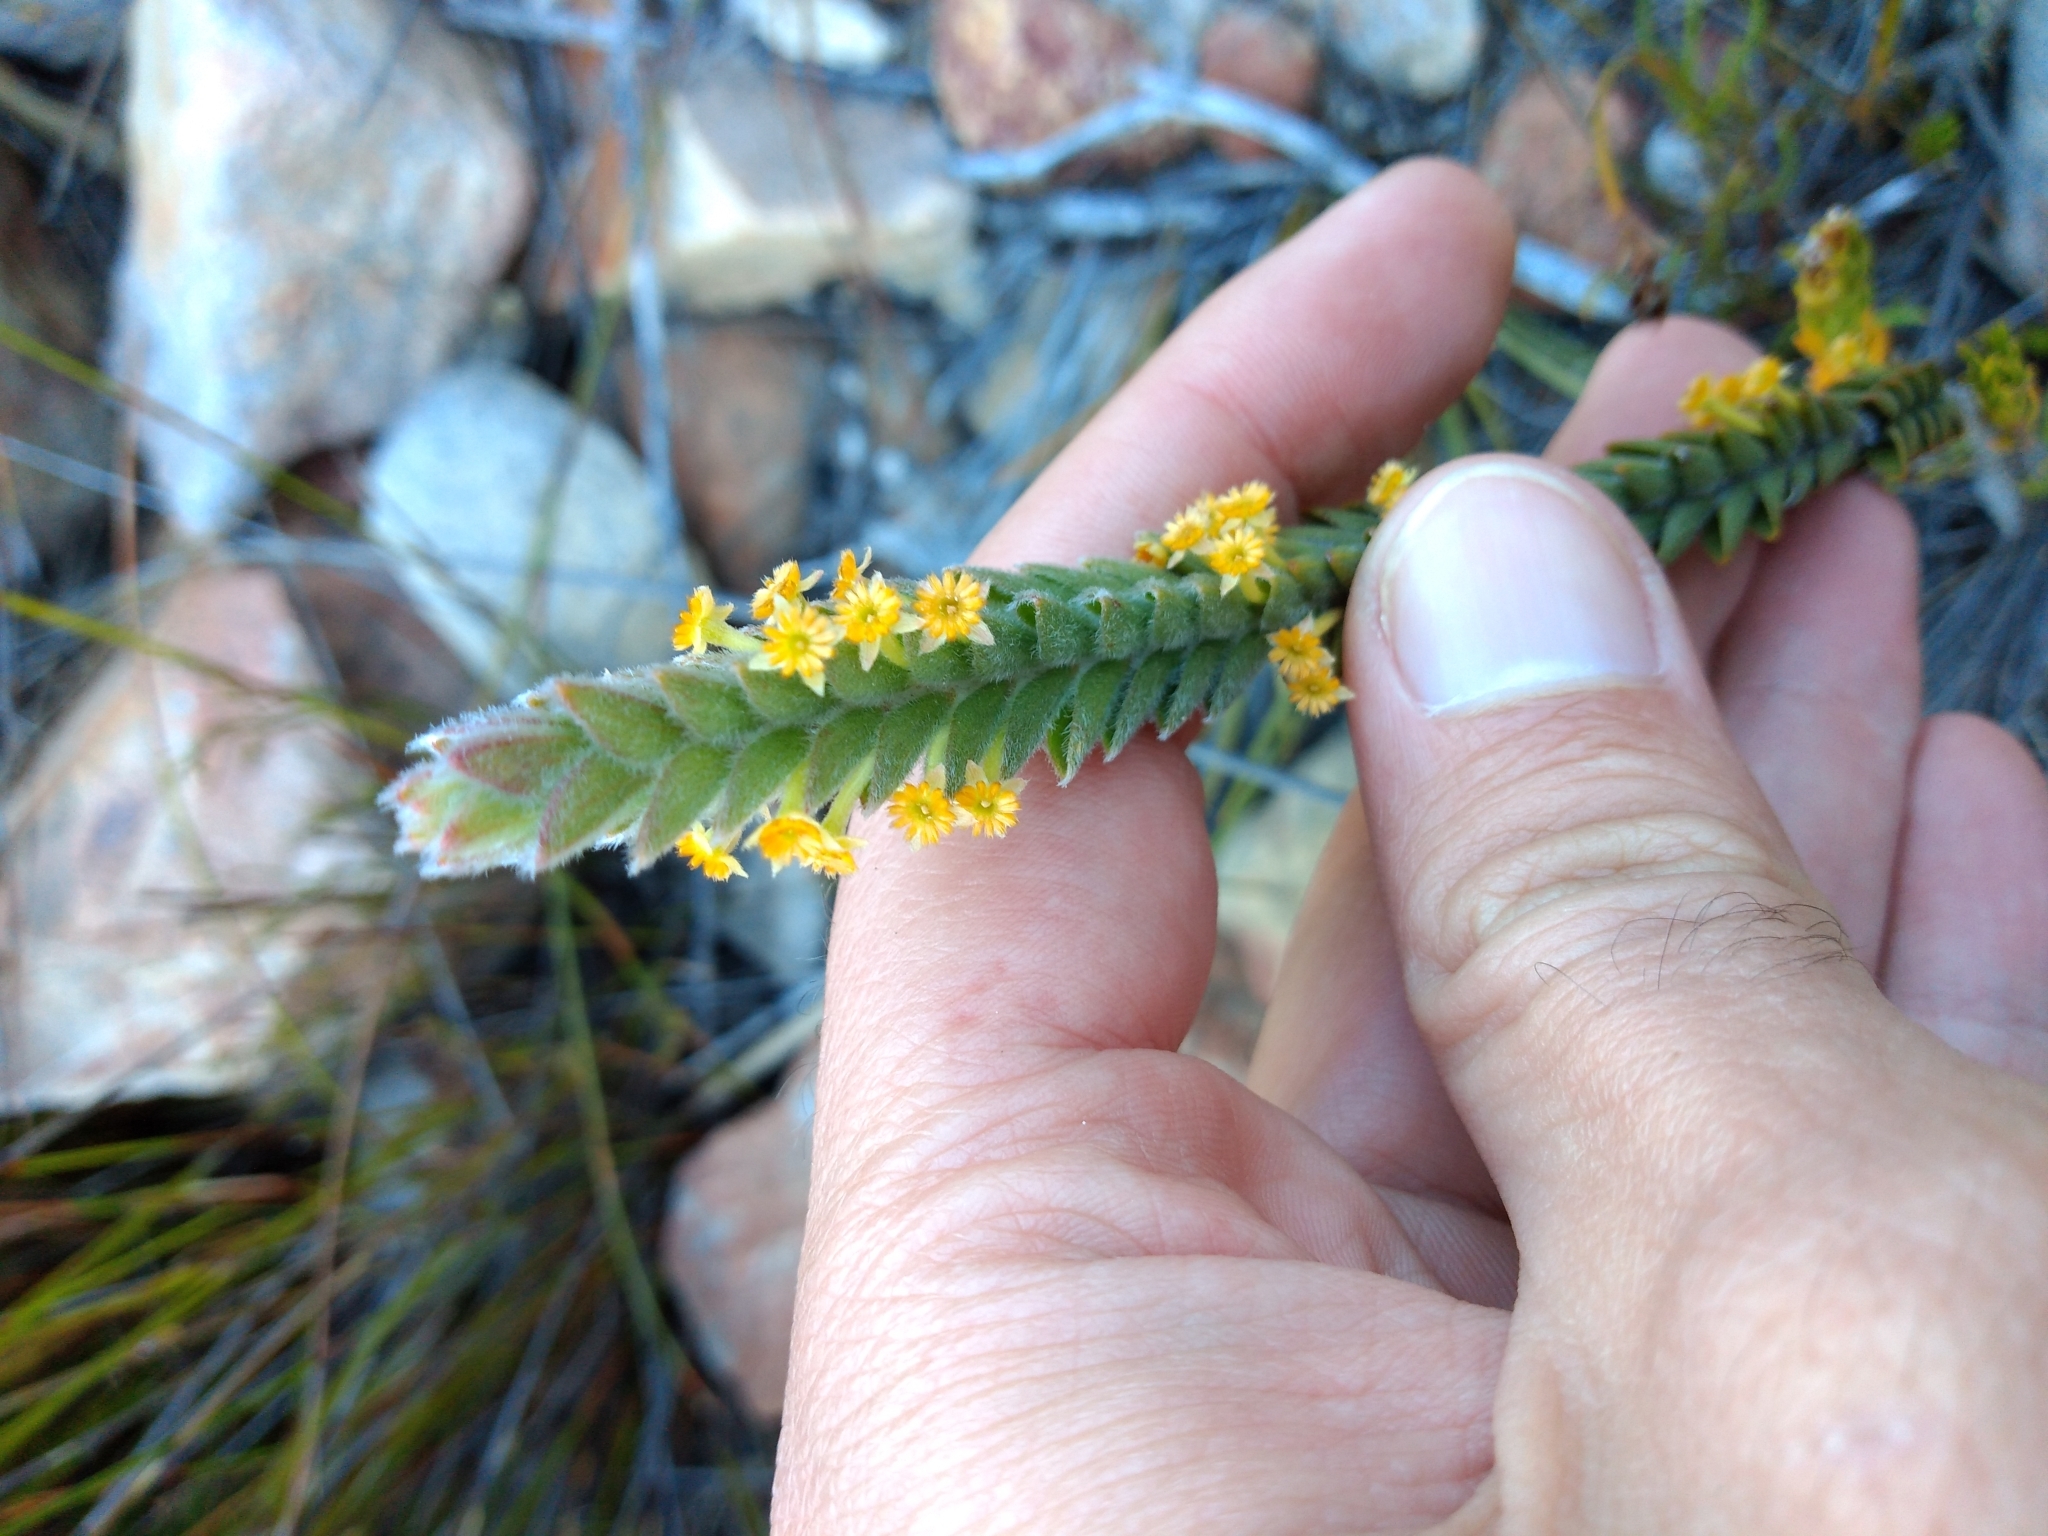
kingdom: Plantae
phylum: Tracheophyta
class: Magnoliopsida
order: Malvales
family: Thymelaeaceae
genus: Struthiola
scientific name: Struthiola tomentosa
